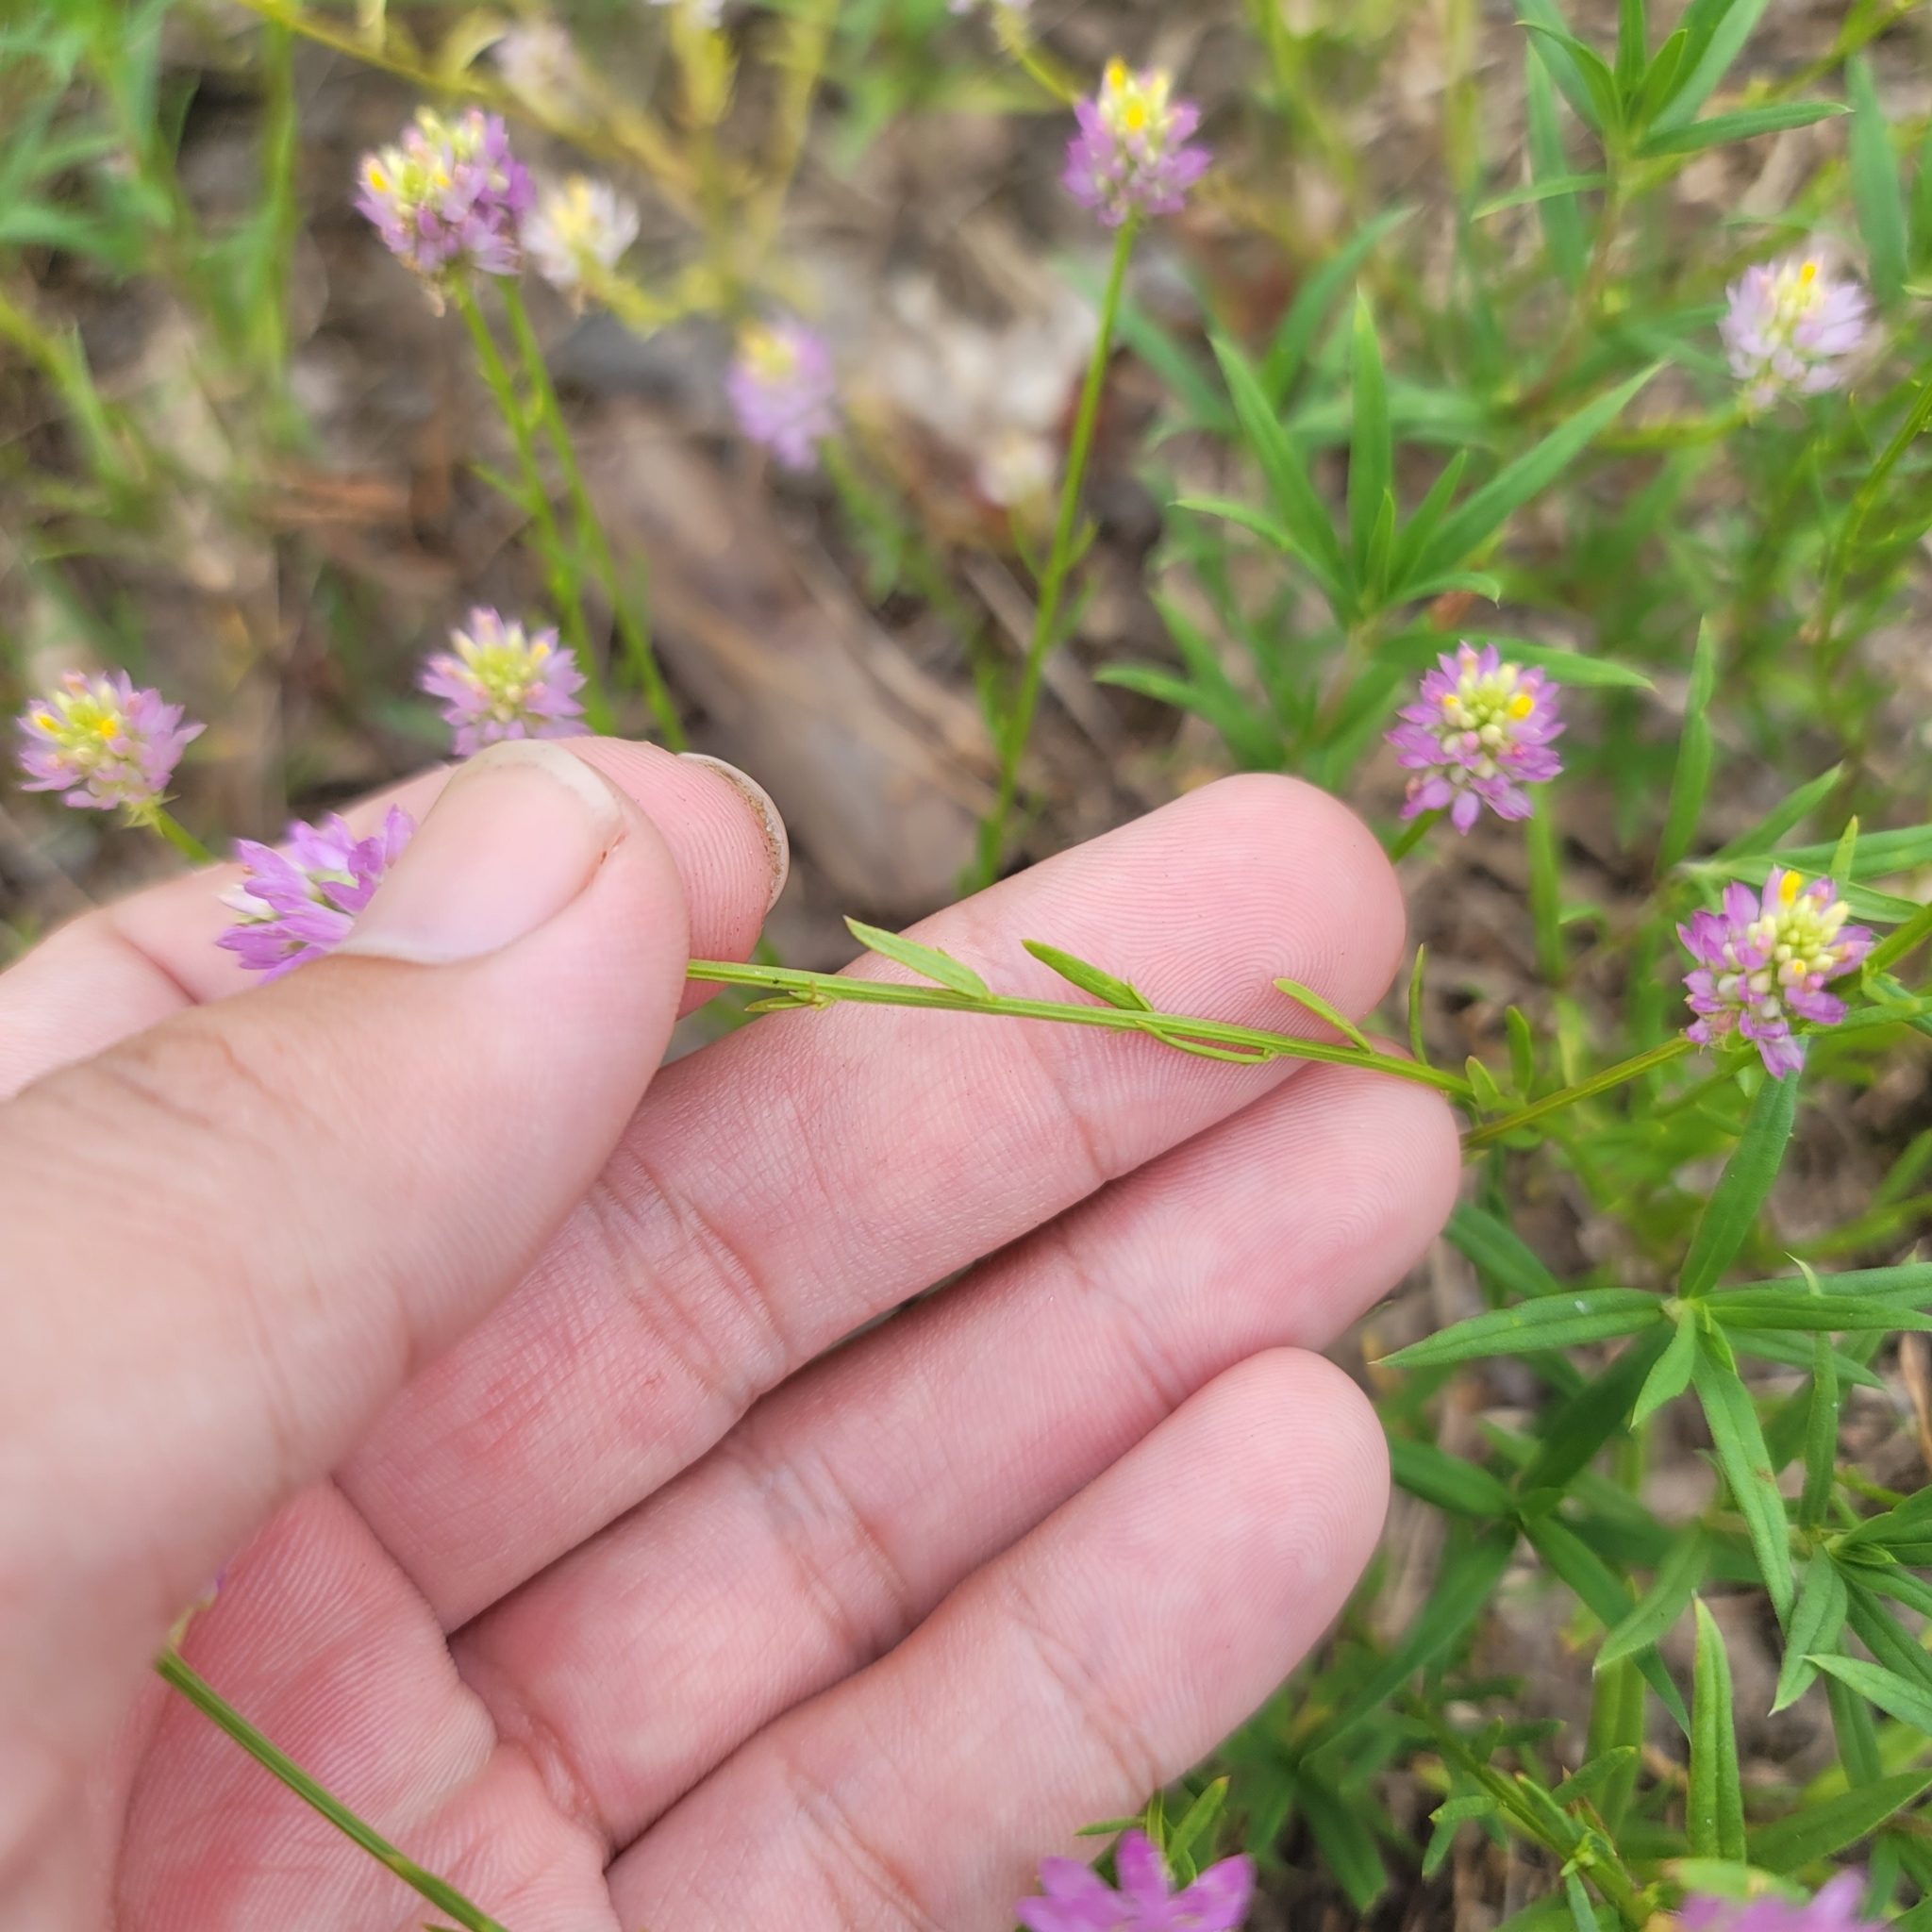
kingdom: Plantae
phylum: Tracheophyta
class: Magnoliopsida
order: Fabales
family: Polygalaceae
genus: Polygala
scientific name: Polygala curtissii
